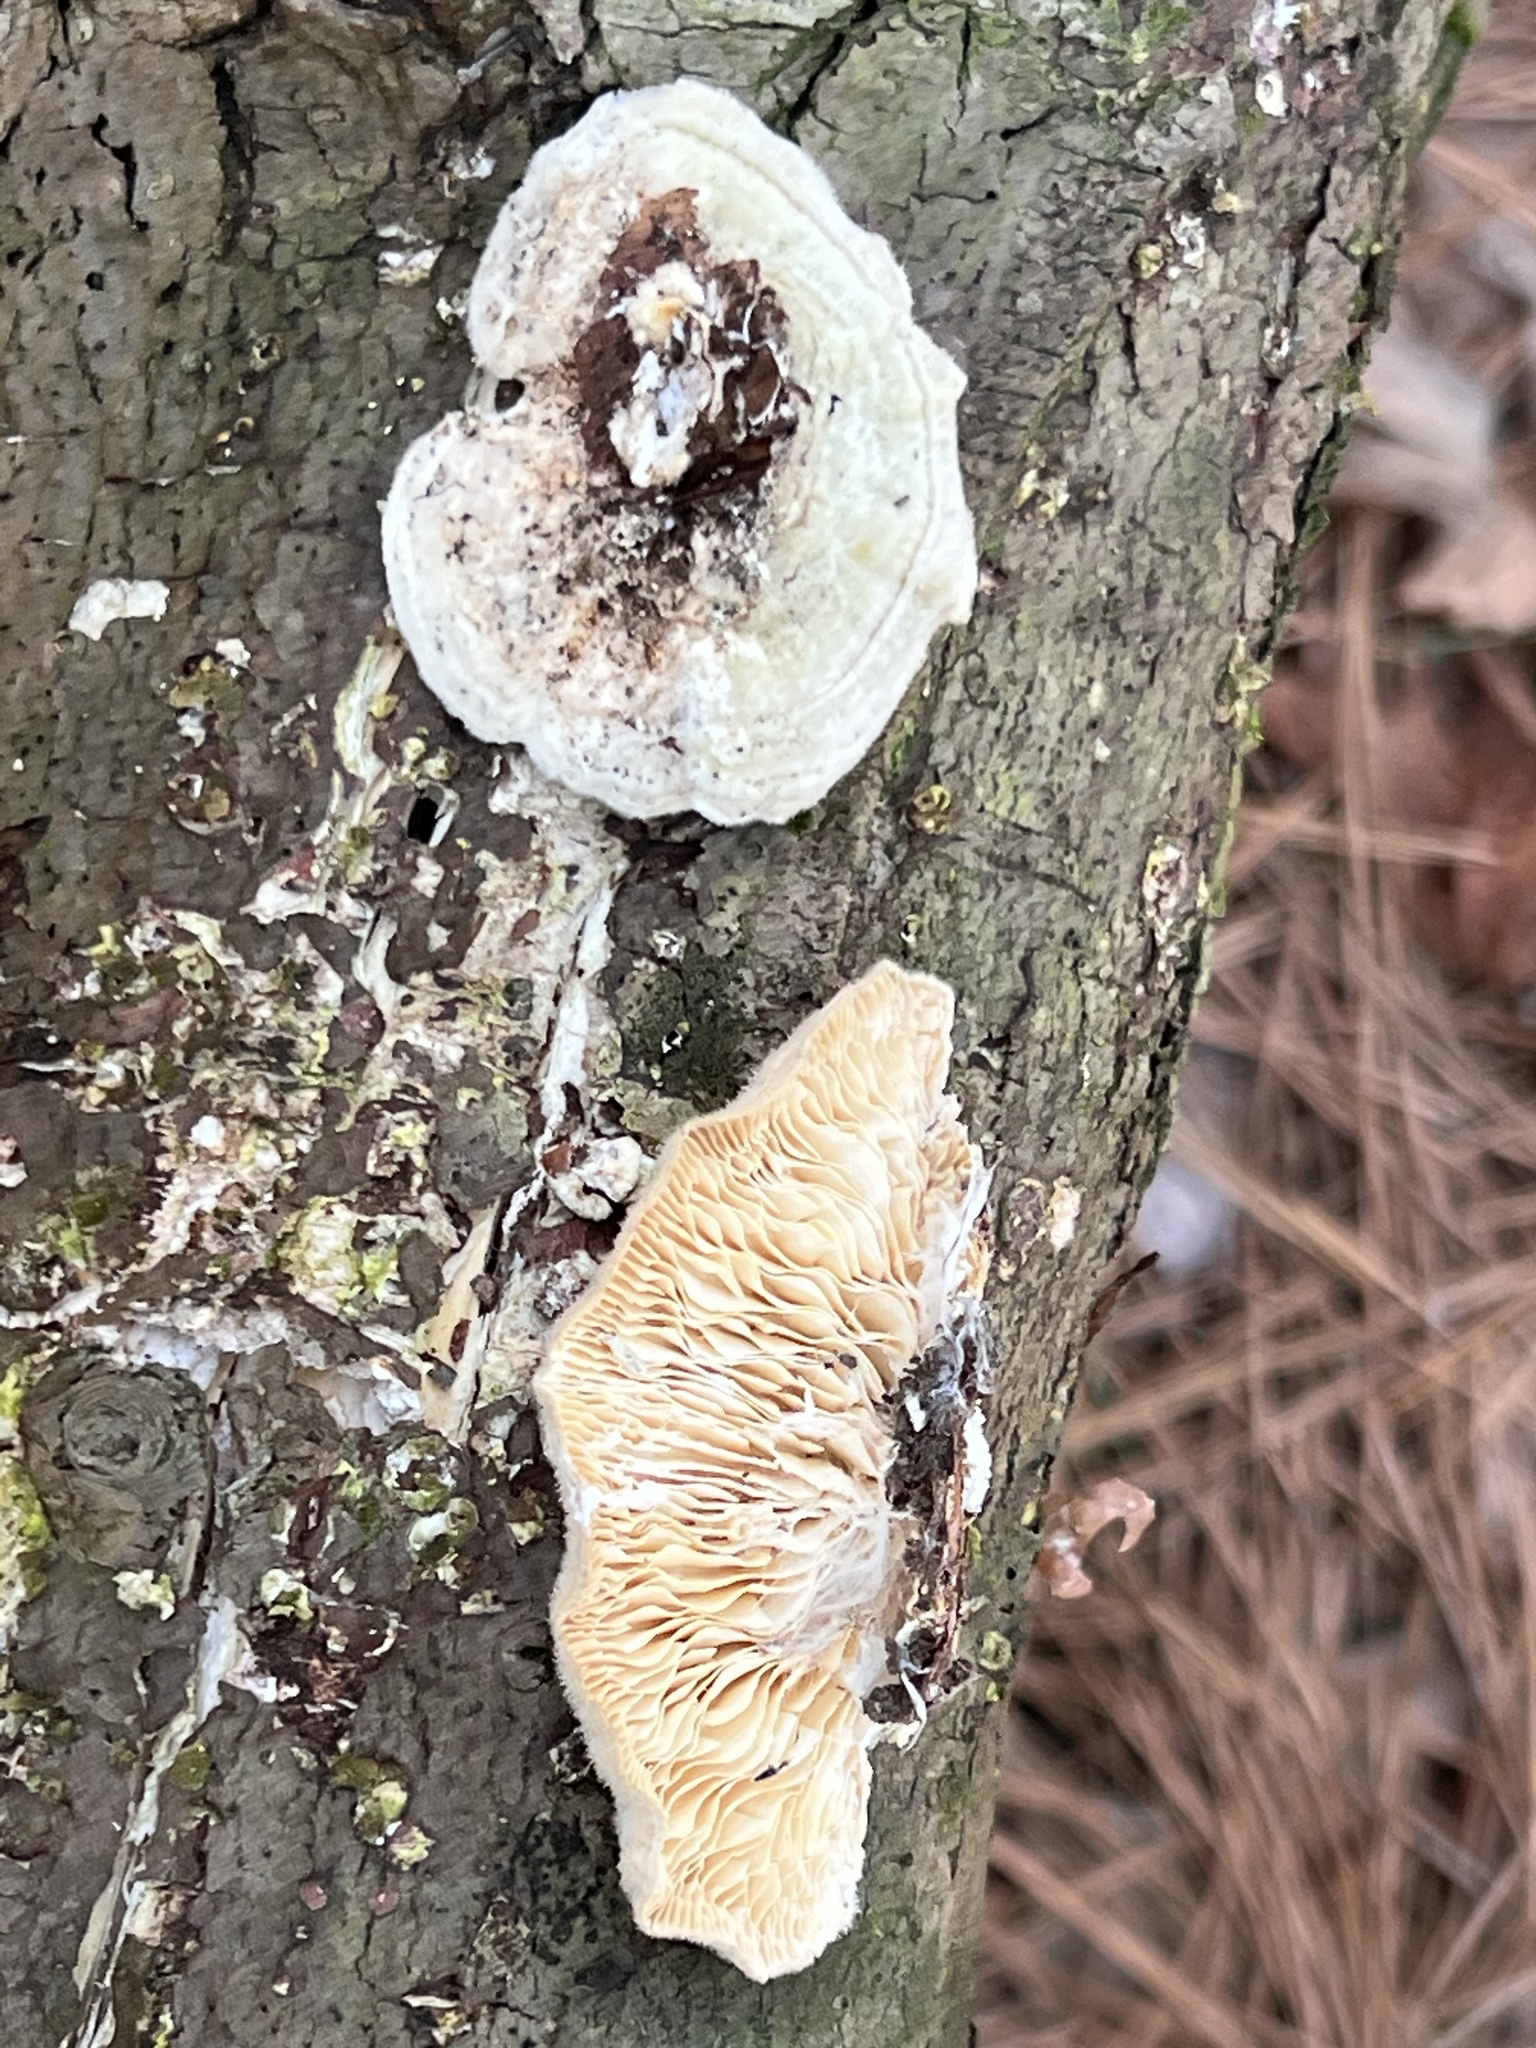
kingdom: Fungi
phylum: Basidiomycota
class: Agaricomycetes
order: Polyporales
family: Polyporaceae
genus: Lenzites
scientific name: Lenzites betulinus
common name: Birch mazegill
